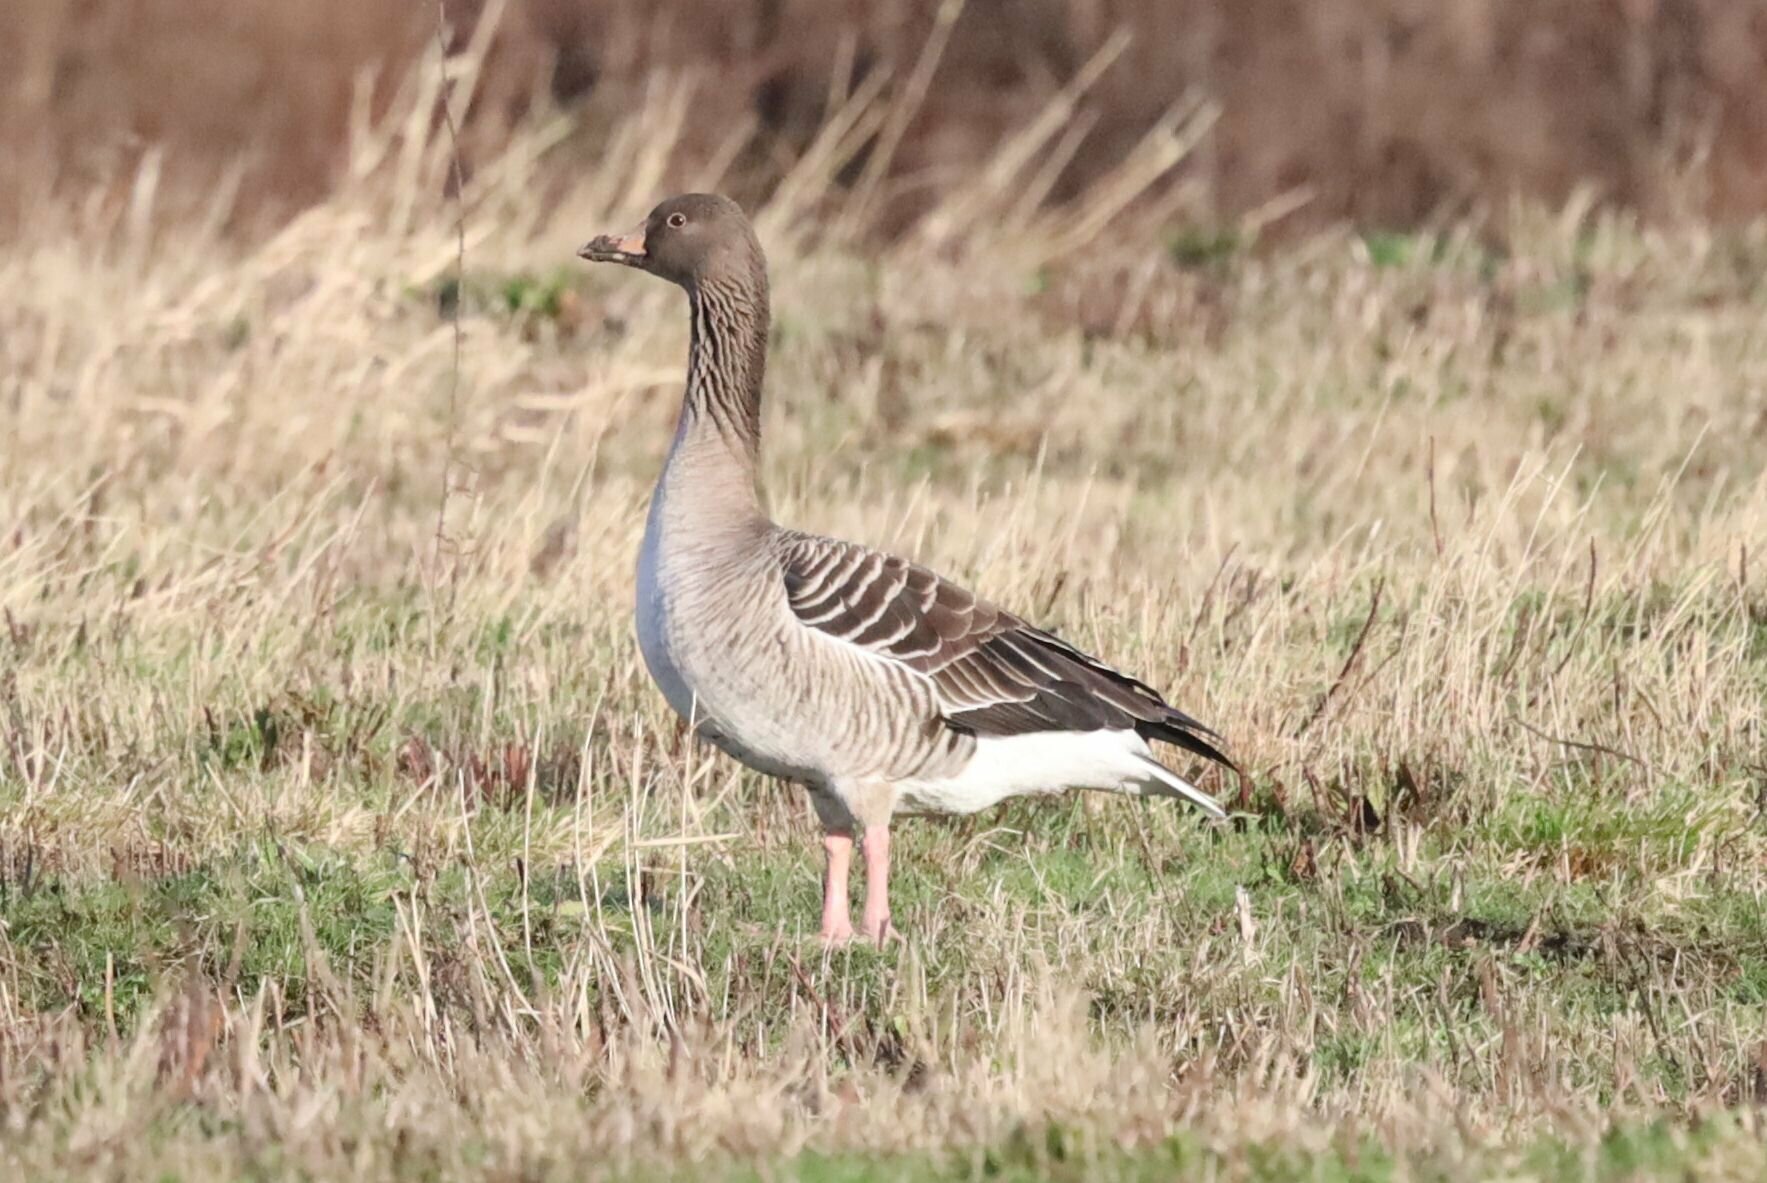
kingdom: Animalia
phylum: Chordata
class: Aves
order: Anseriformes
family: Anatidae
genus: Anser
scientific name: Anser anser
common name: Greylag goose
